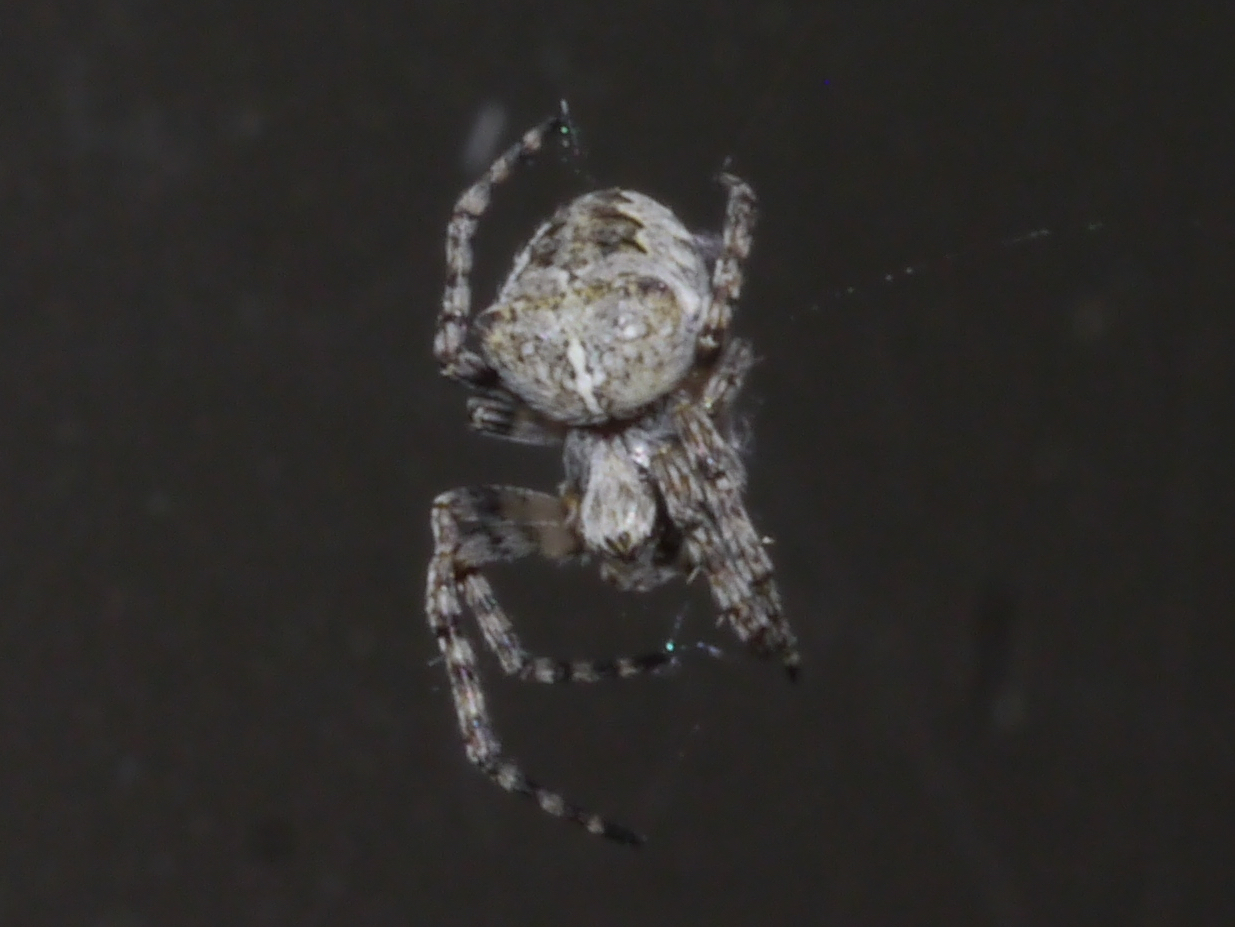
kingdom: Animalia
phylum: Arthropoda
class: Arachnida
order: Araneae
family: Araneidae
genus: Araneus
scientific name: Araneus nordmanni
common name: Nordmann's orbweaver
